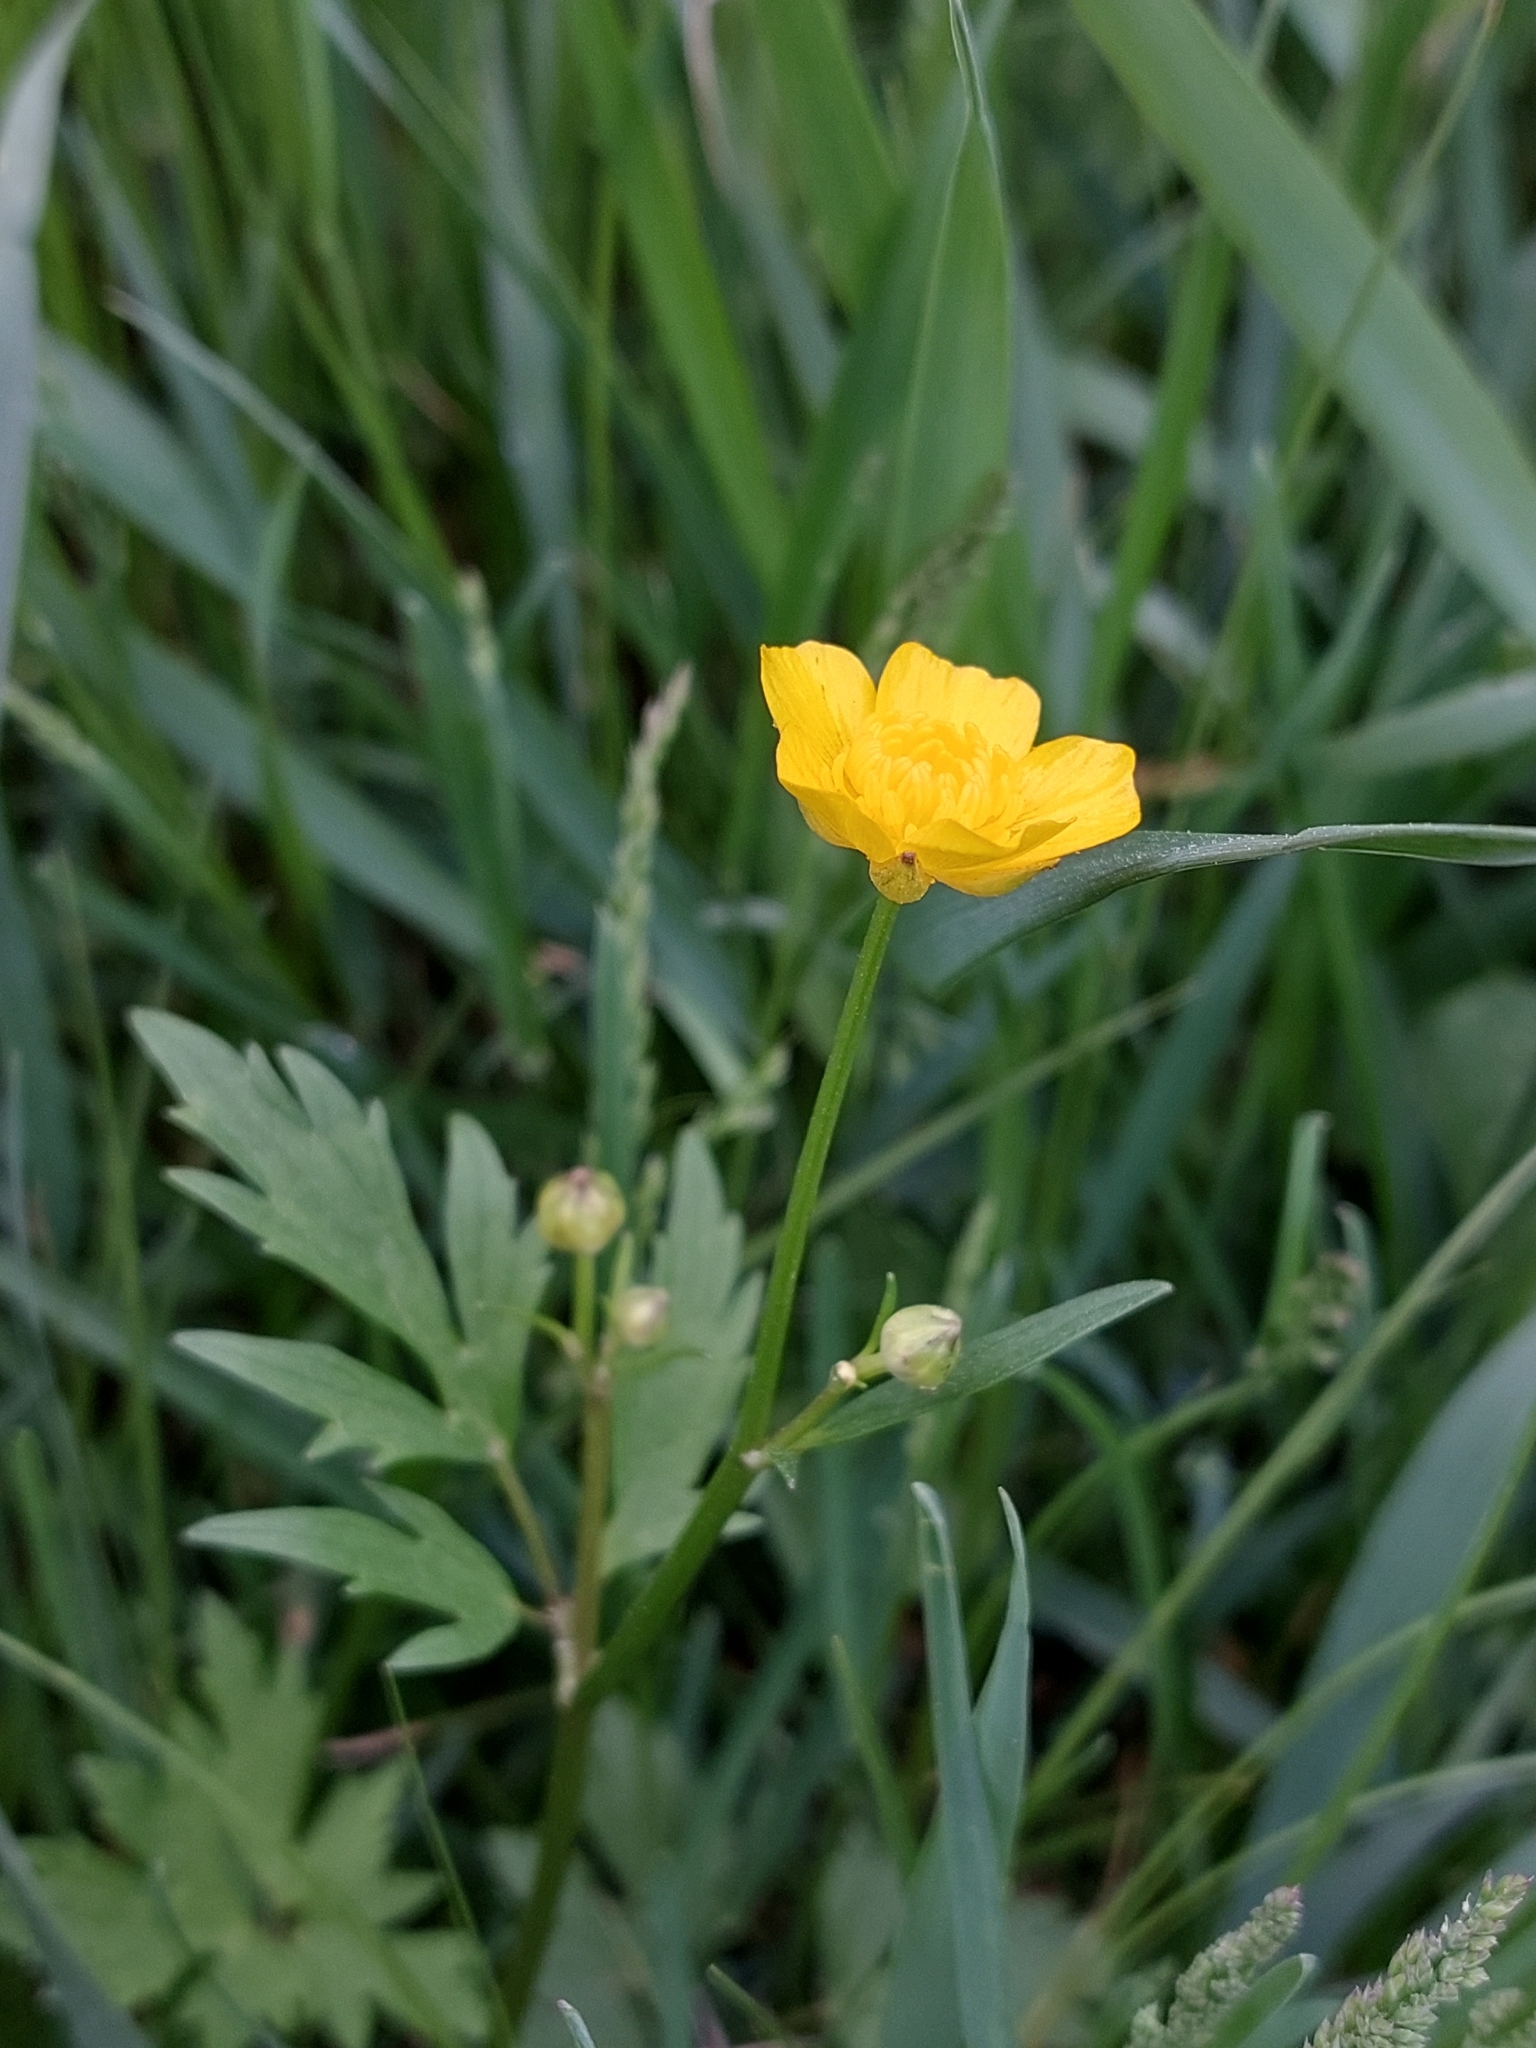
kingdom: Plantae
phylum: Tracheophyta
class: Magnoliopsida
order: Ranunculales
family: Ranunculaceae
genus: Ranunculus
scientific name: Ranunculus repens
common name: Creeping buttercup
